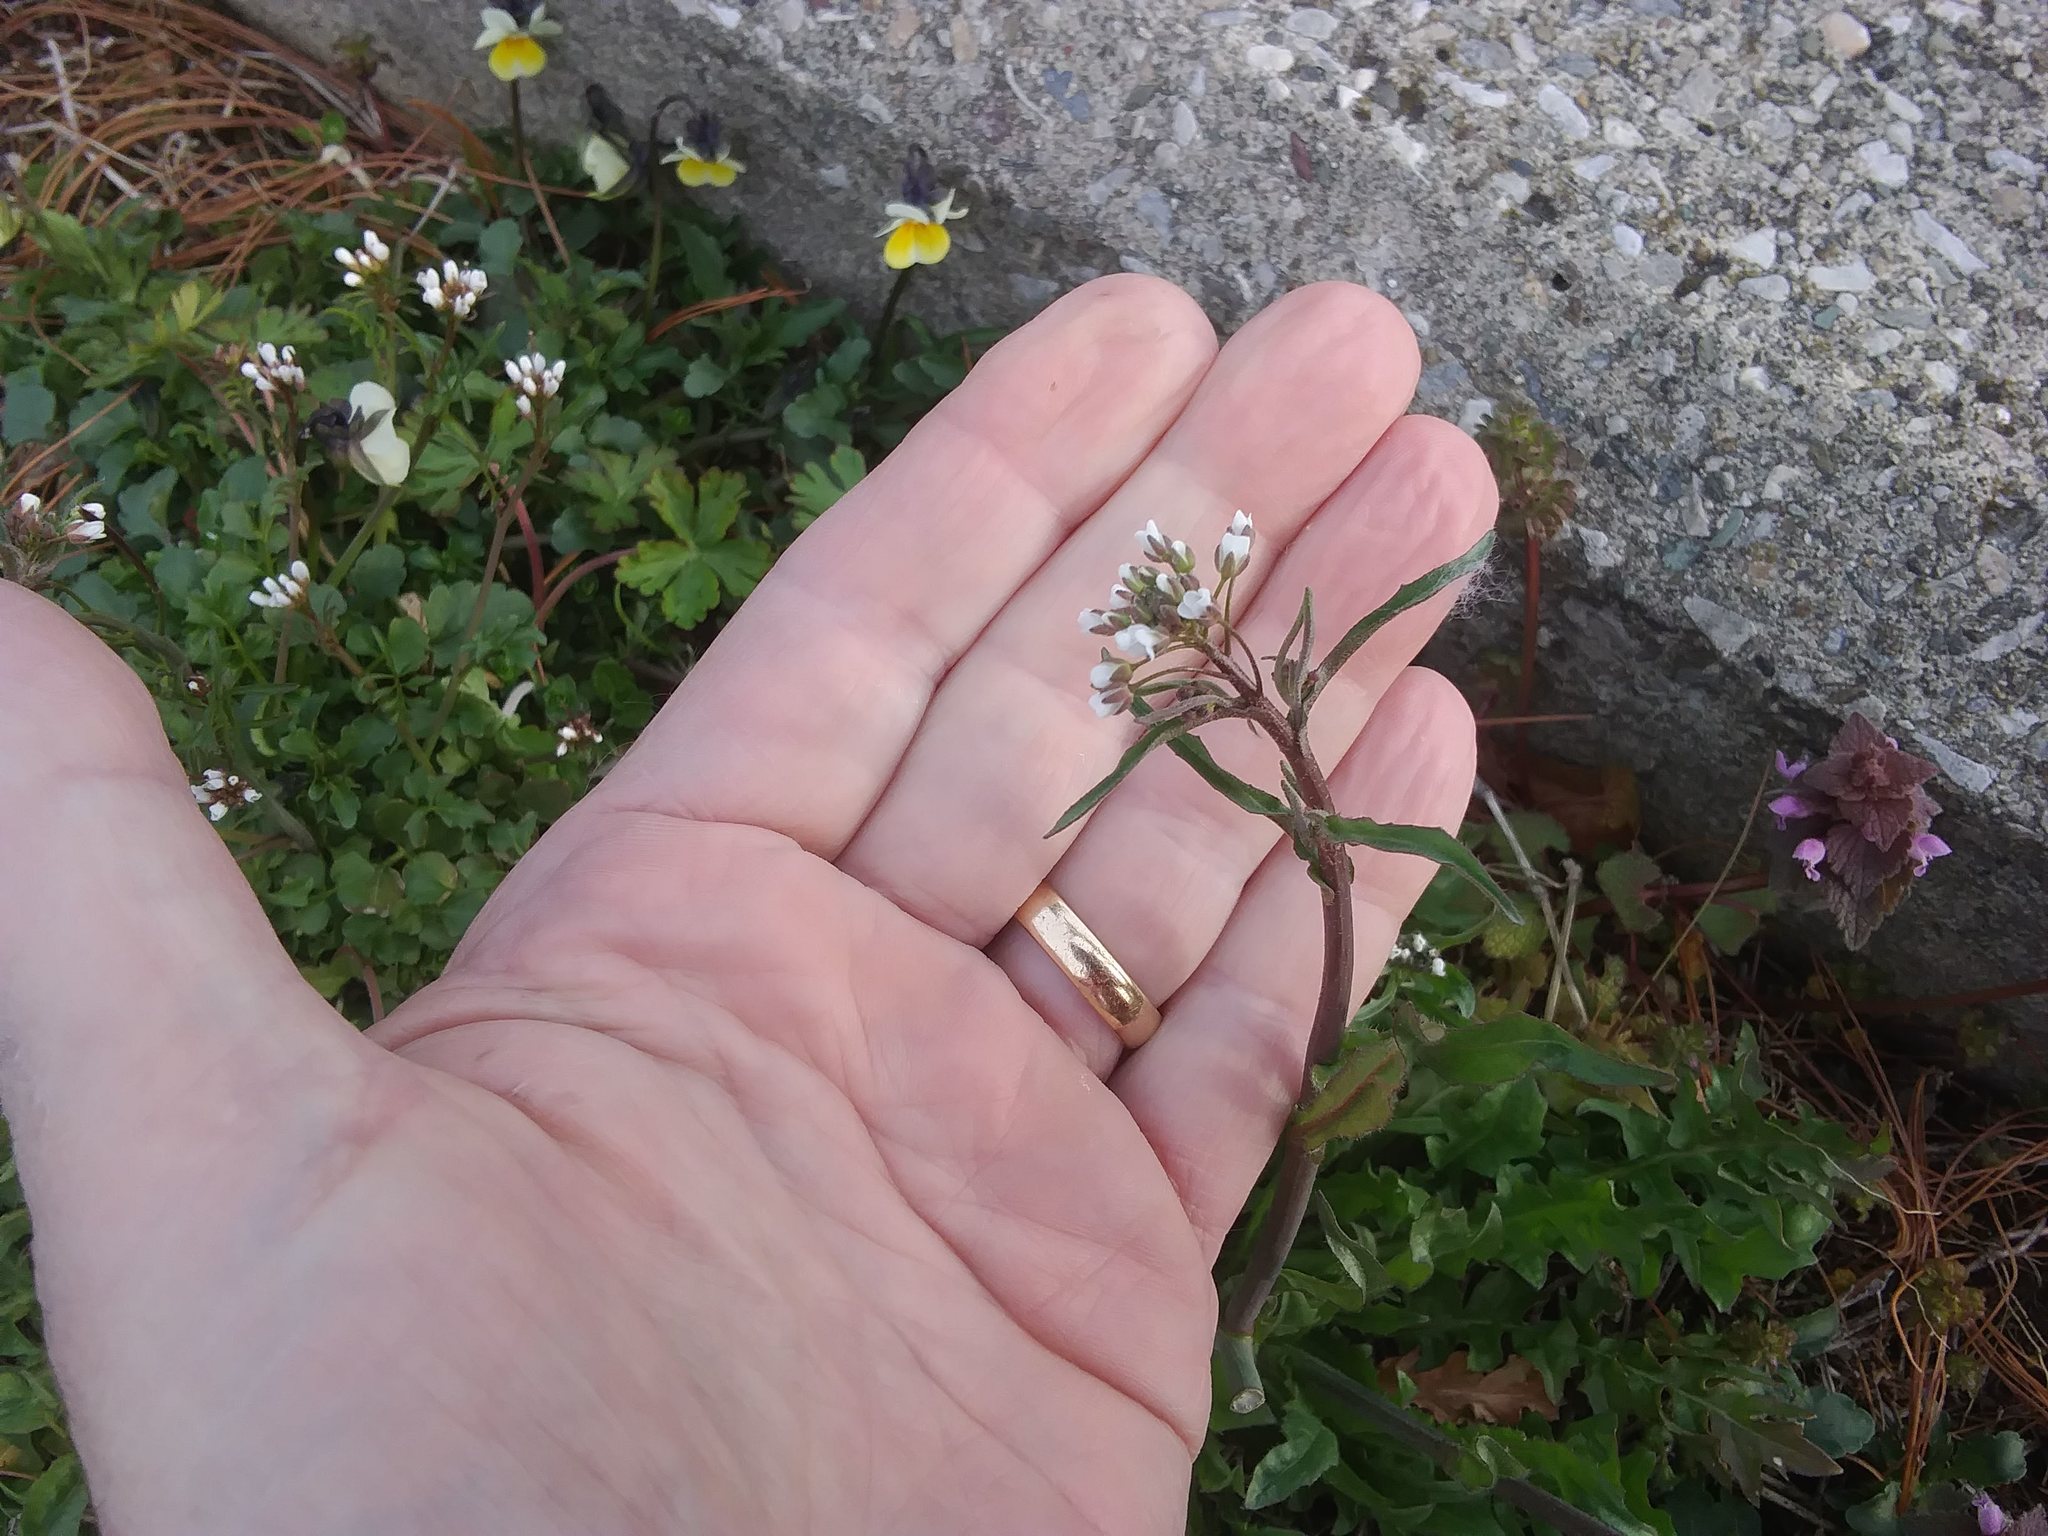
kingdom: Plantae
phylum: Tracheophyta
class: Magnoliopsida
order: Brassicales
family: Brassicaceae
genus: Capsella
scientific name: Capsella bursa-pastoris
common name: Shepherd's purse
